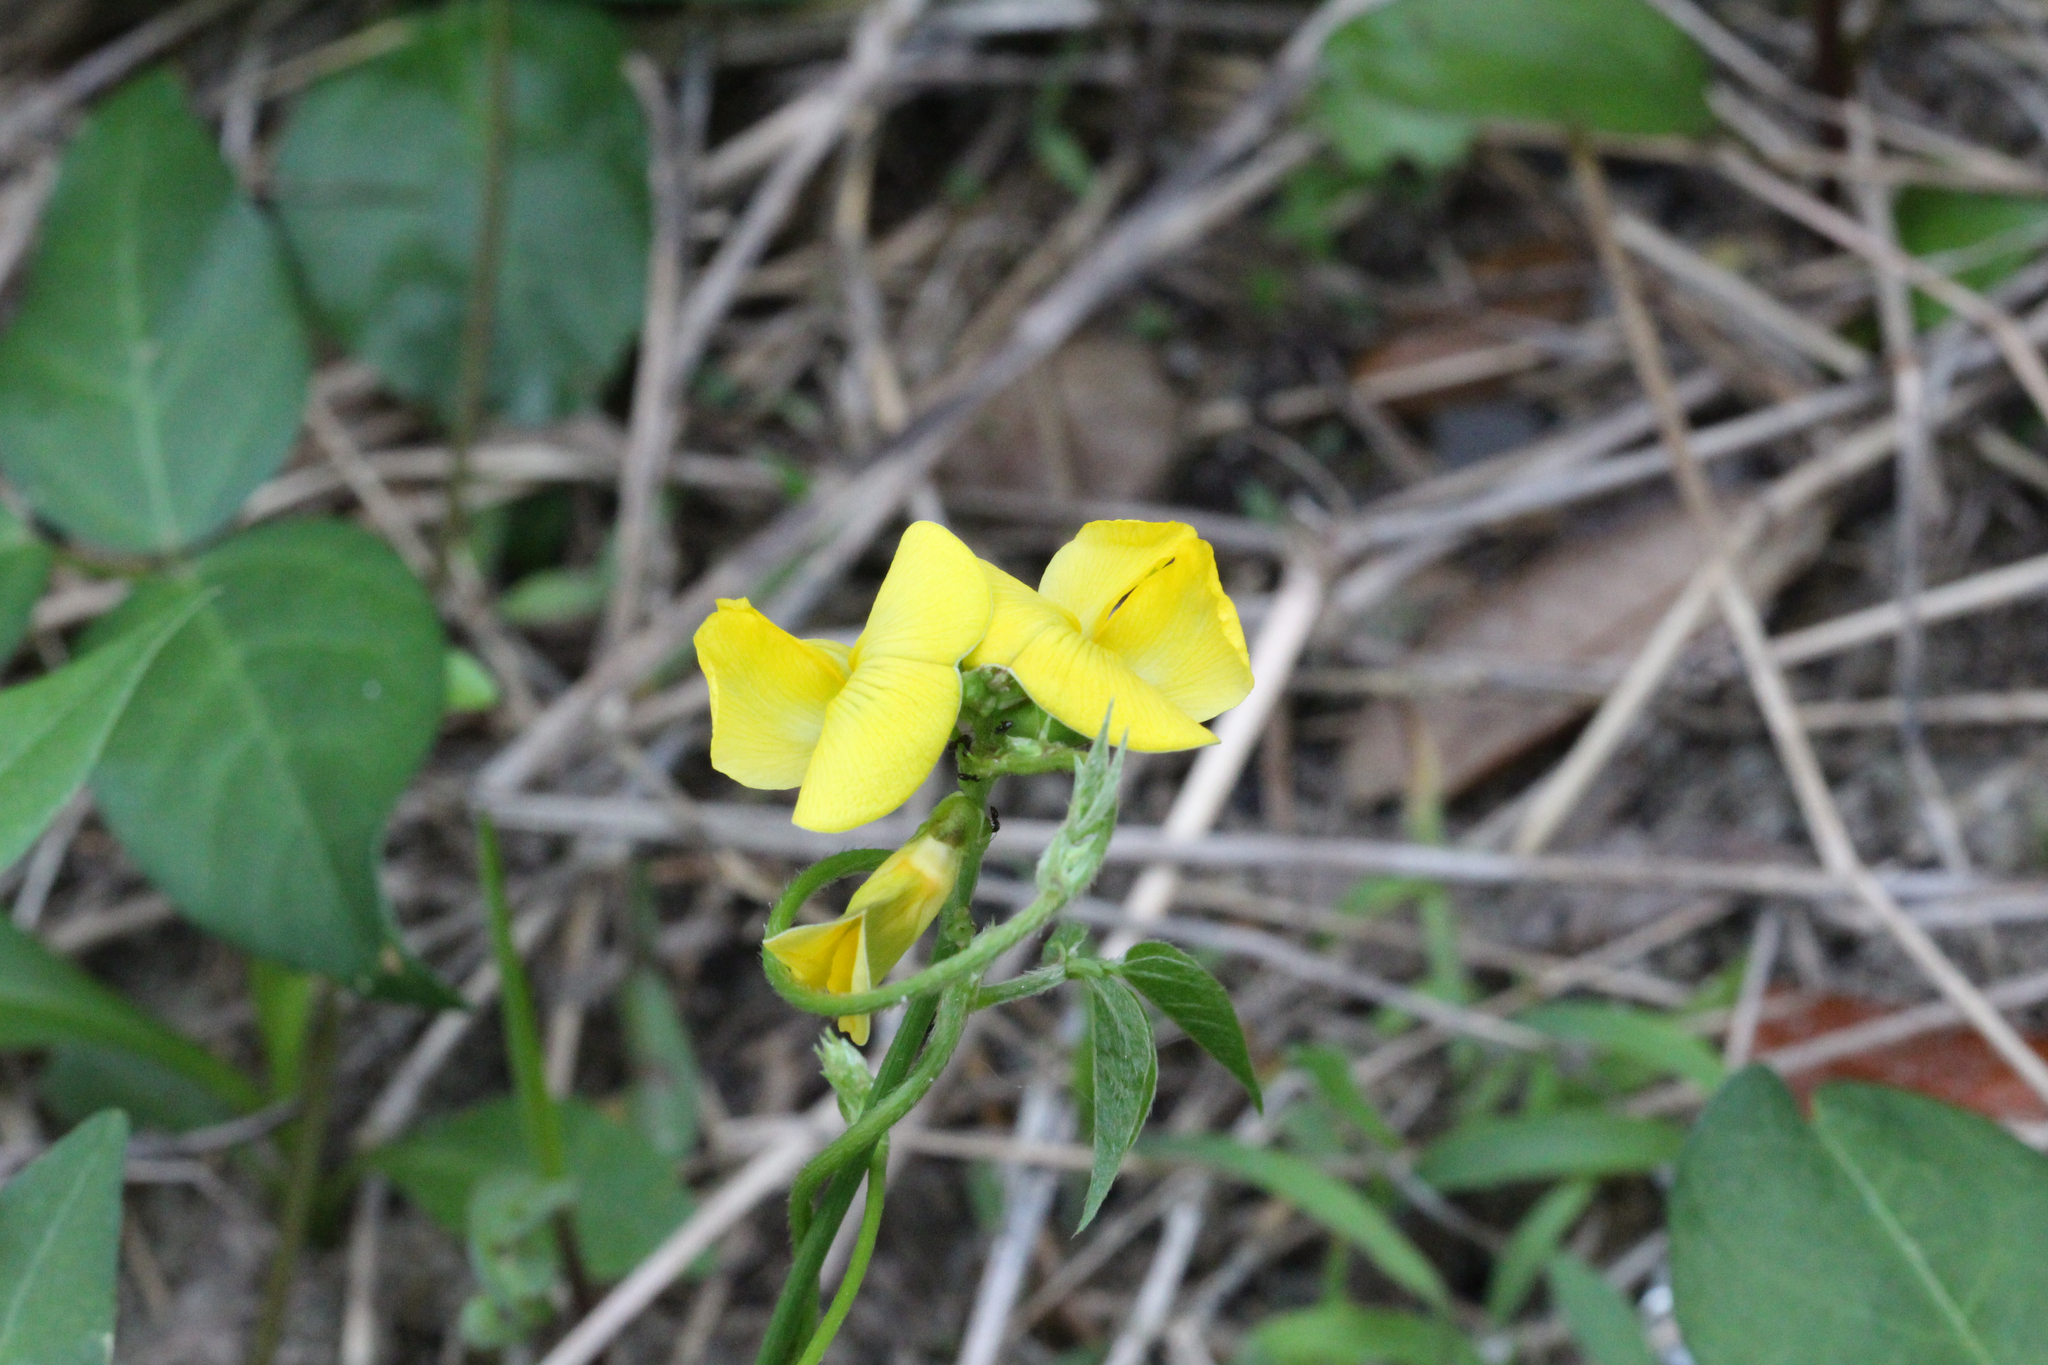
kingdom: Plantae
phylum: Tracheophyta
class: Magnoliopsida
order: Fabales
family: Fabaceae
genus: Vigna
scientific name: Vigna luteola
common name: Hairypod cowpea
